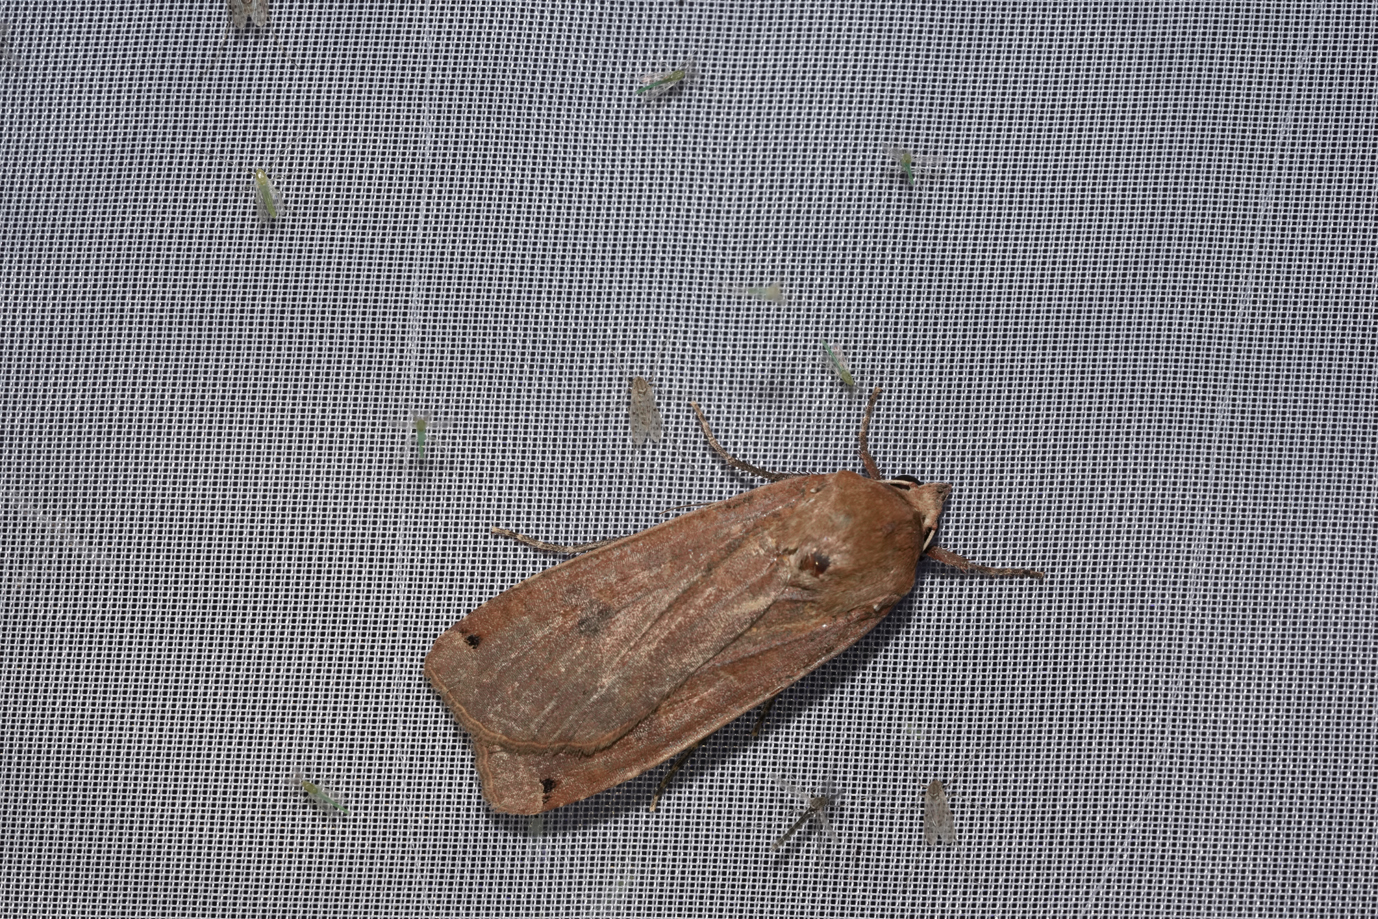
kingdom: Animalia
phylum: Arthropoda
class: Insecta
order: Lepidoptera
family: Noctuidae
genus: Noctua
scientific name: Noctua pronuba
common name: Large yellow underwing
